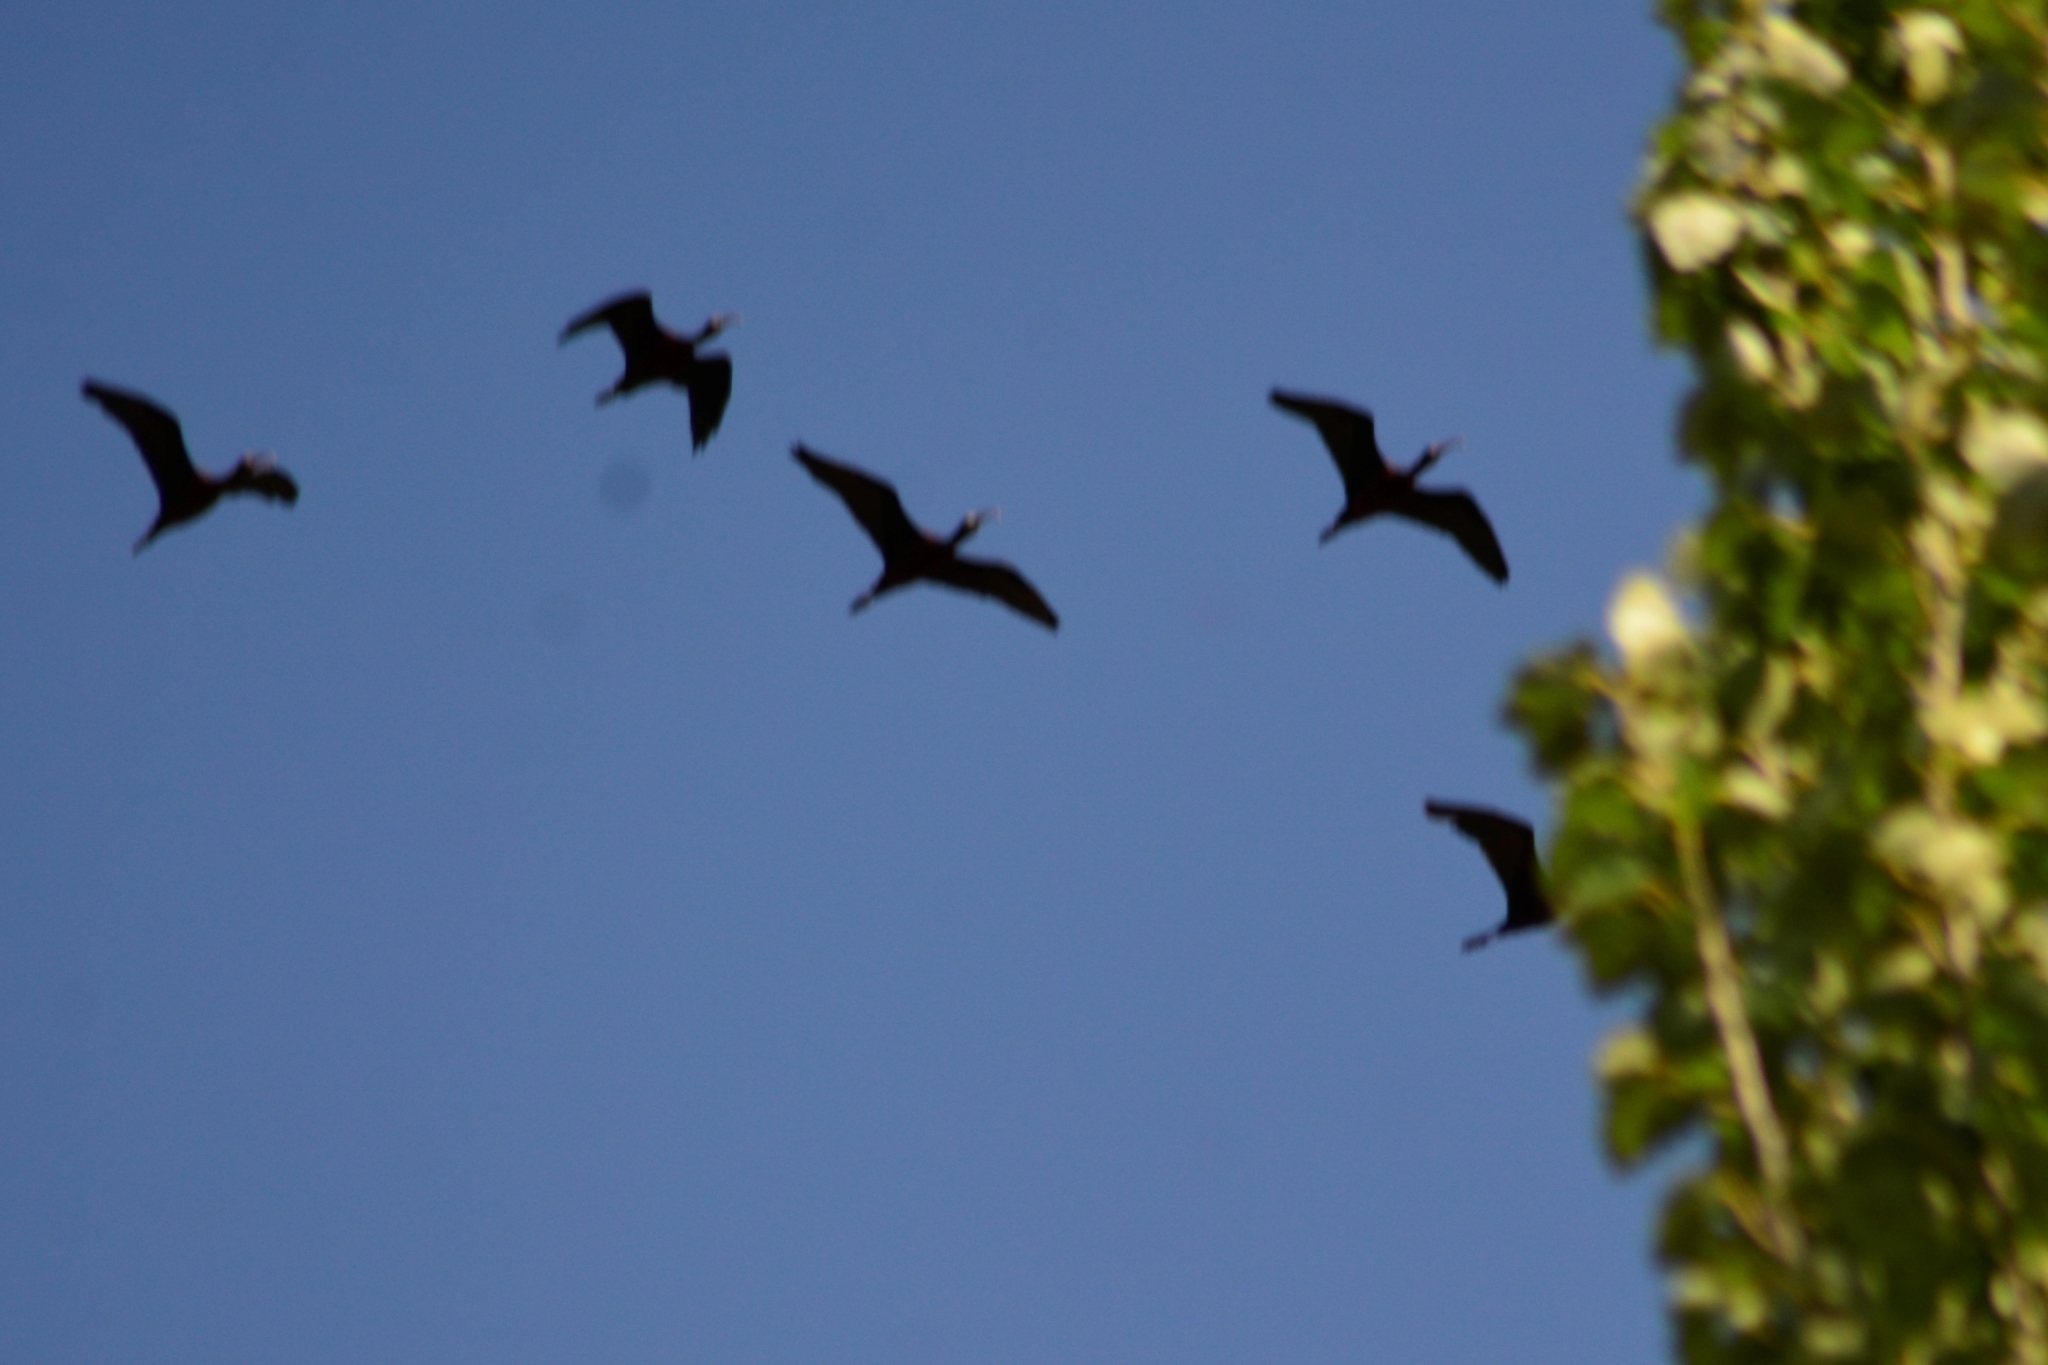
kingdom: Animalia
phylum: Chordata
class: Aves
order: Pelecaniformes
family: Threskiornithidae
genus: Plegadis
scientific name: Plegadis chihi
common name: White-faced ibis
